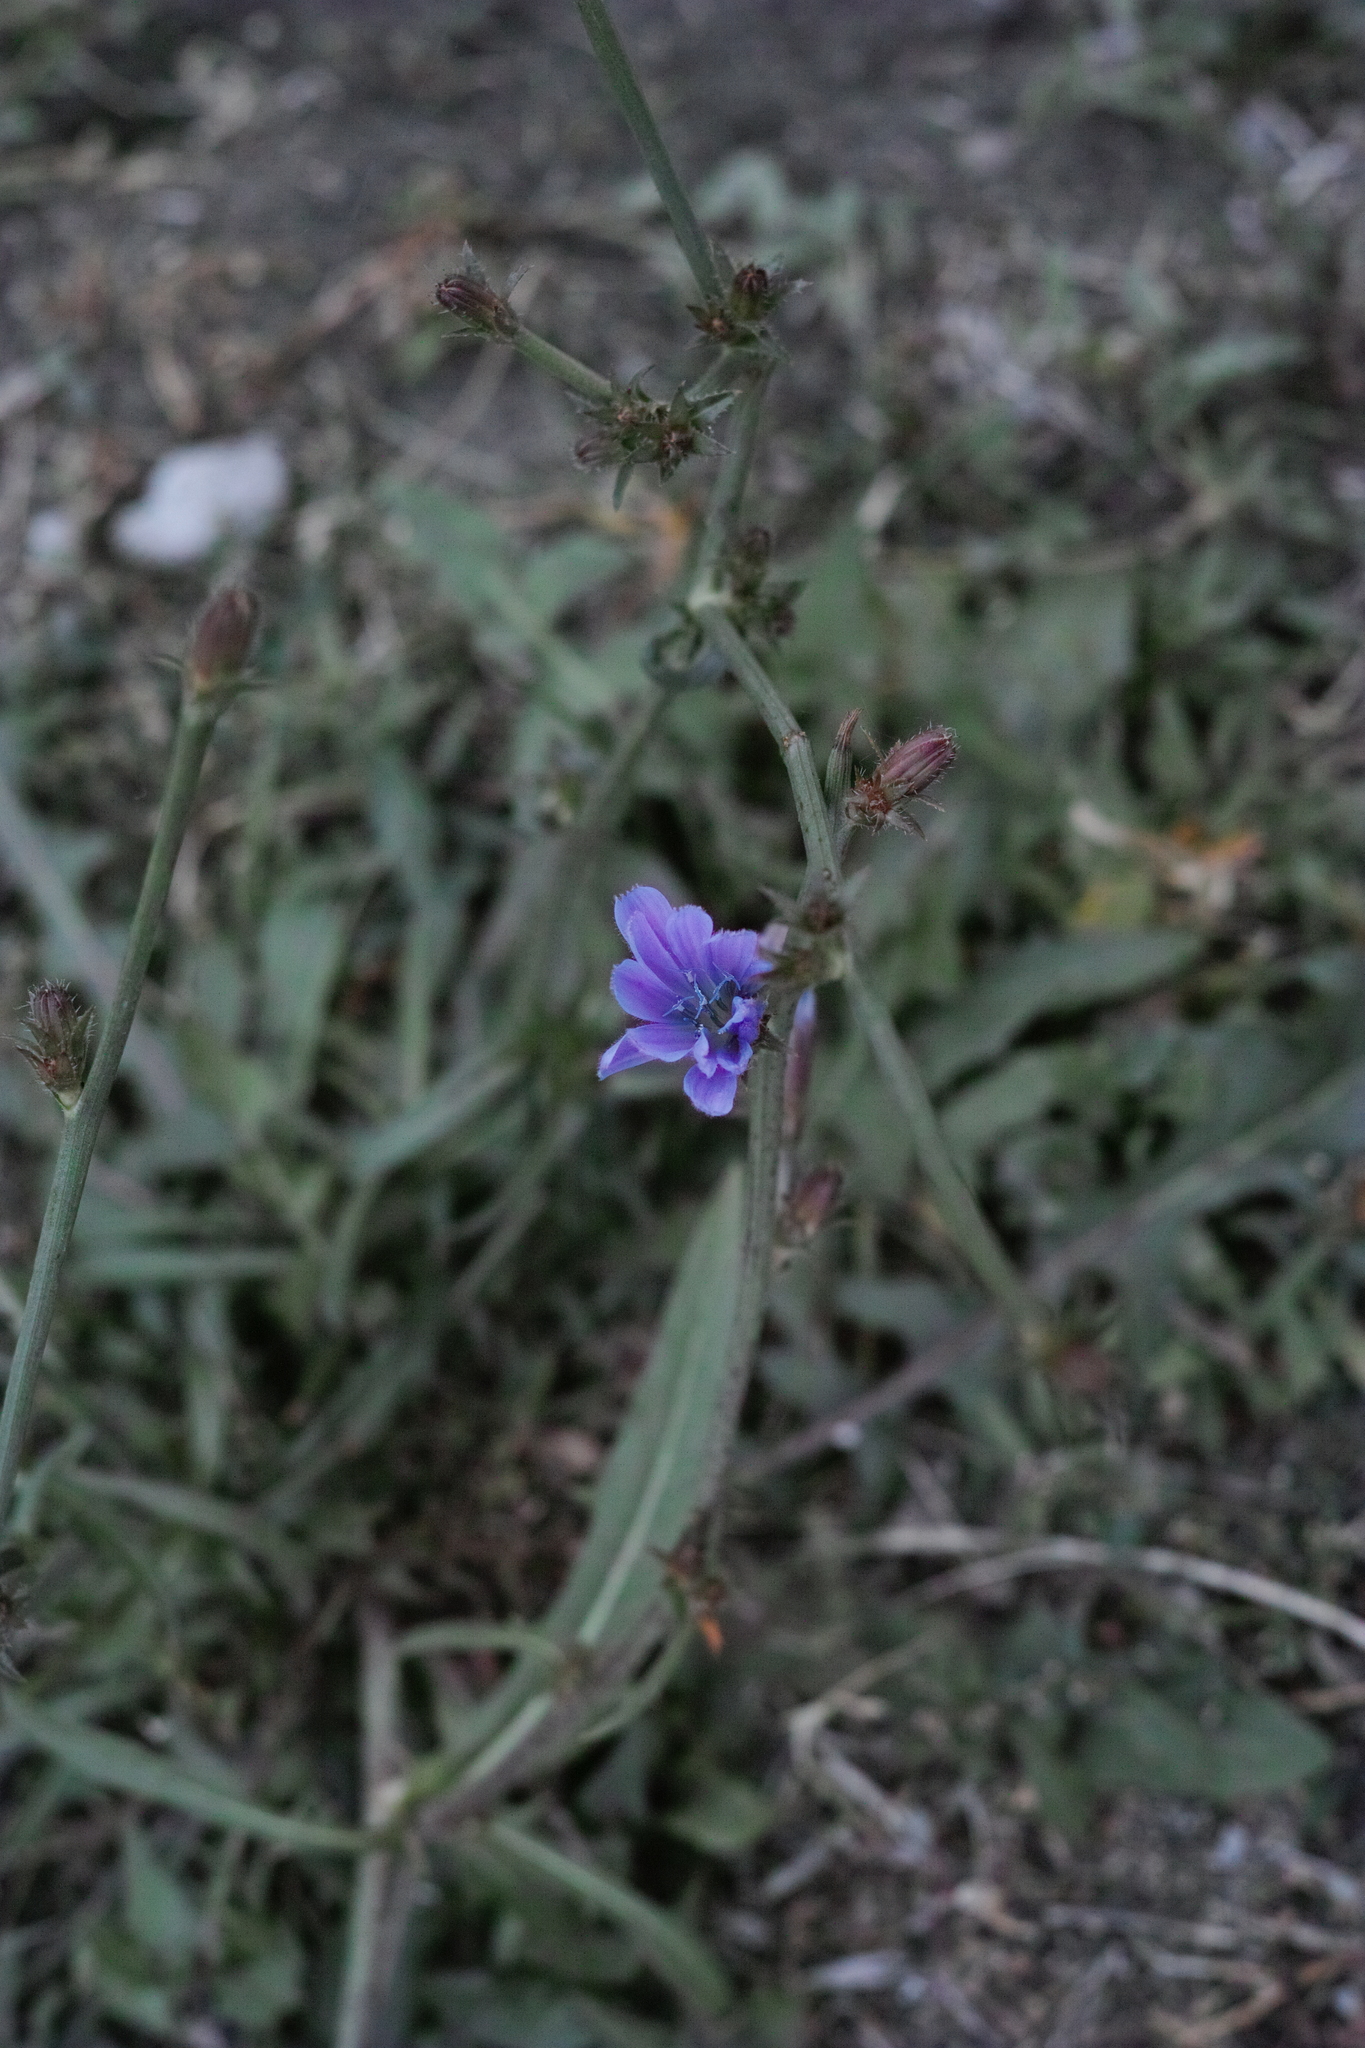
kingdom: Plantae
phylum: Tracheophyta
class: Magnoliopsida
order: Asterales
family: Asteraceae
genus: Cichorium
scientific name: Cichorium intybus
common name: Chicory
